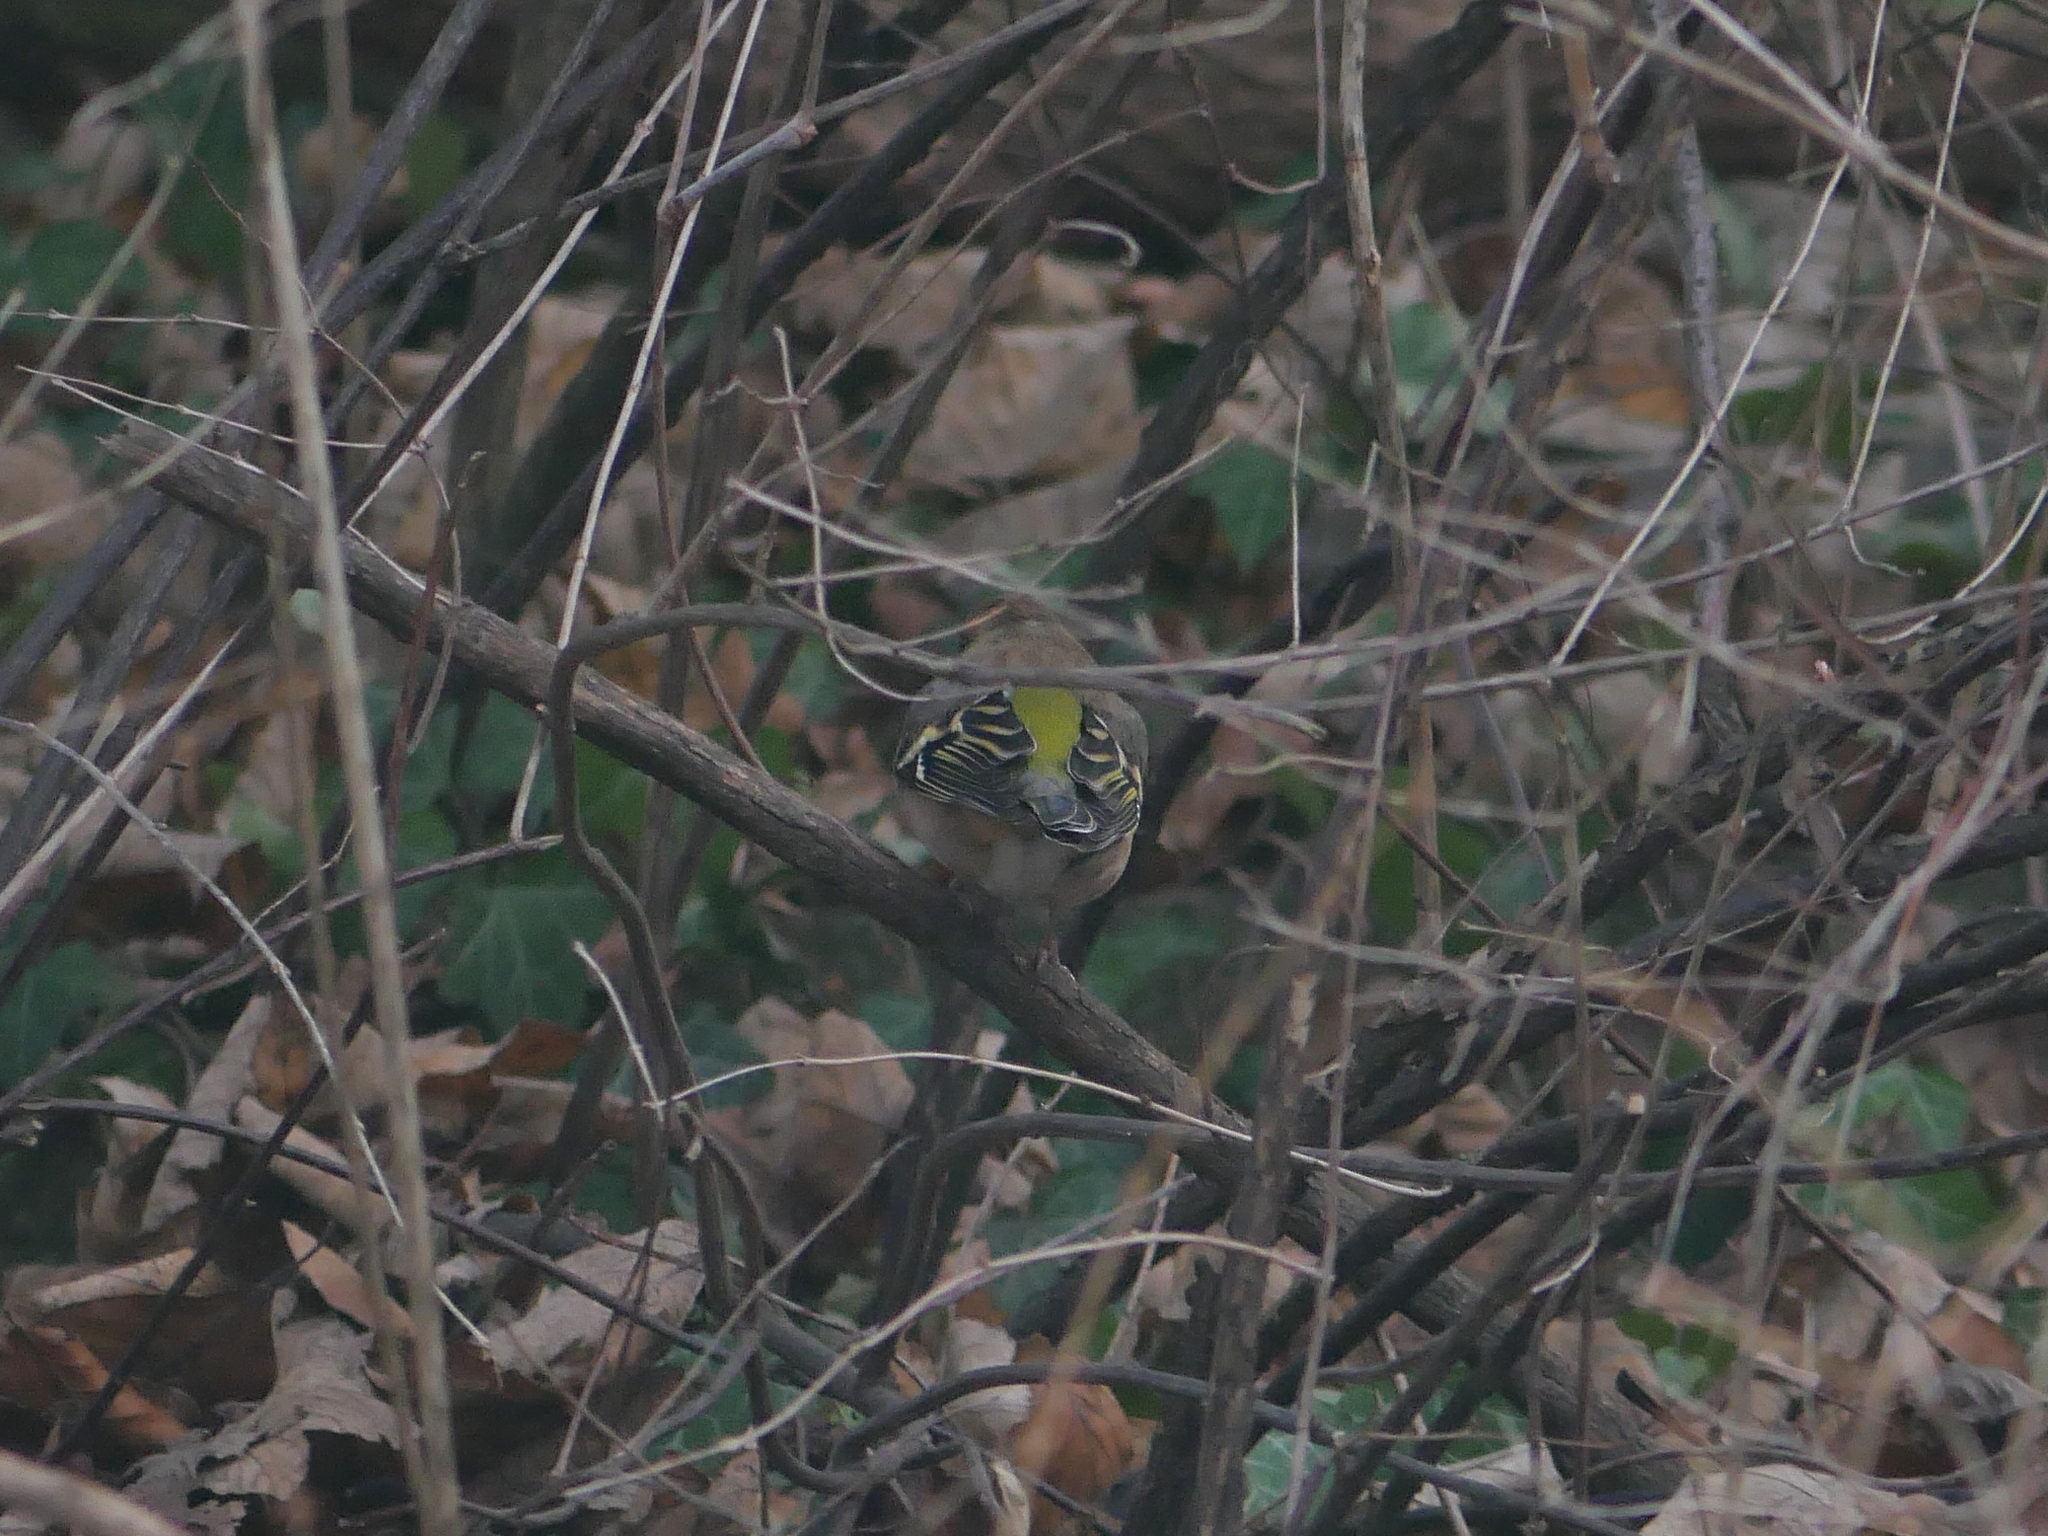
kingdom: Animalia
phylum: Chordata
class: Aves
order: Passeriformes
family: Fringillidae
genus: Fringilla
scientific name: Fringilla coelebs
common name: Common chaffinch
